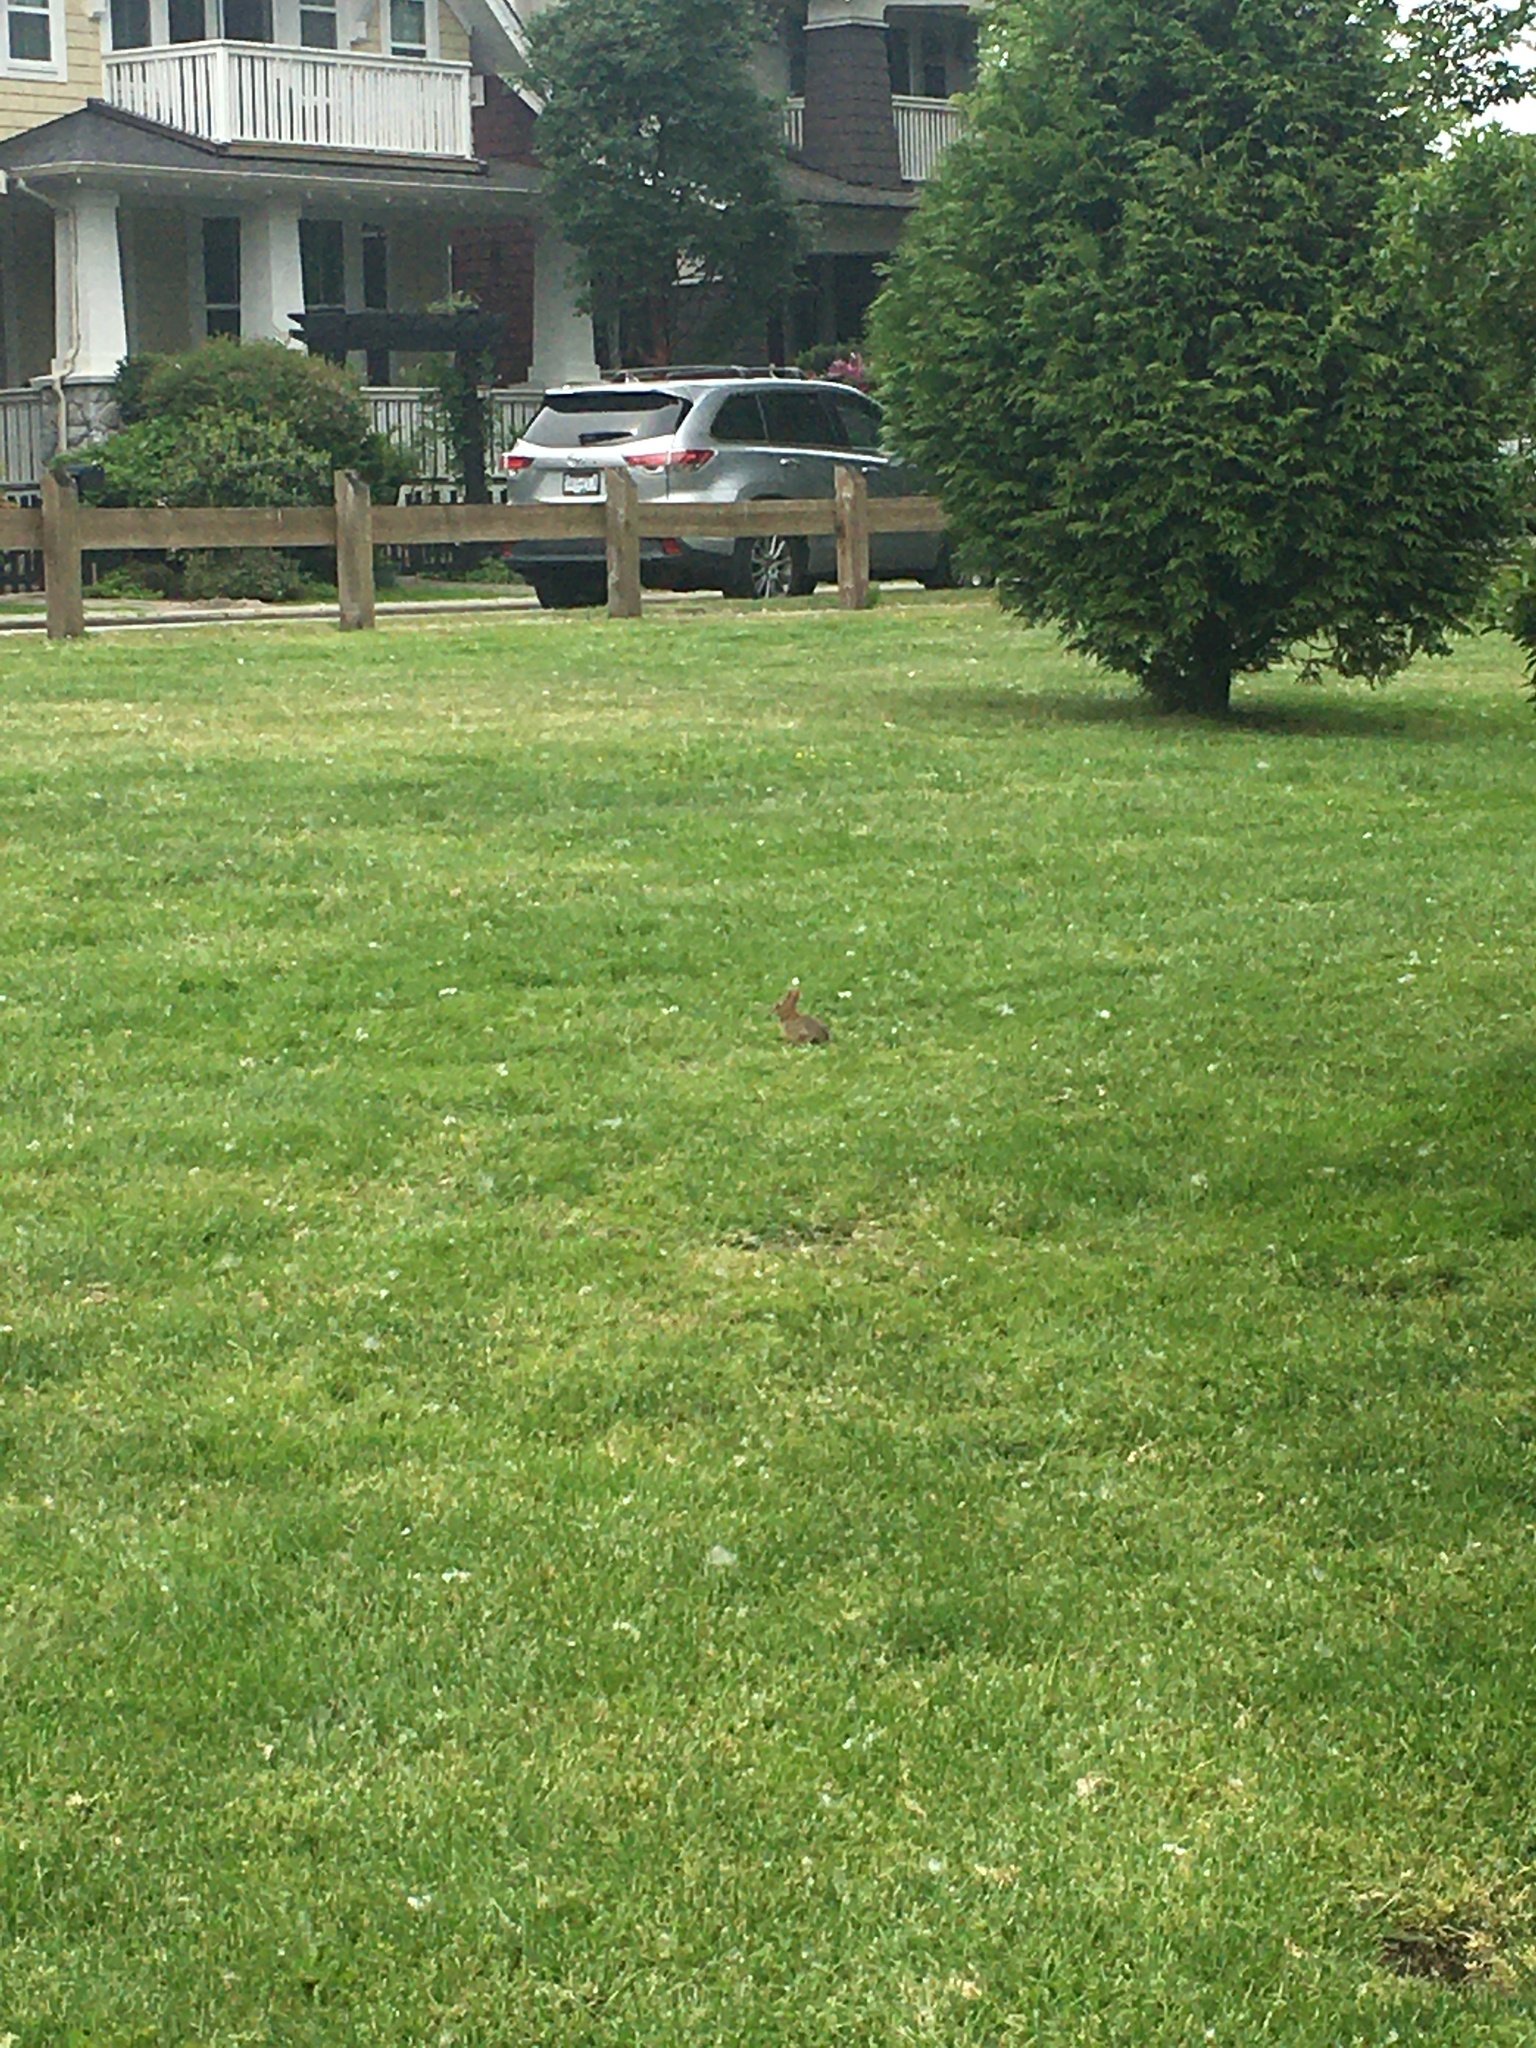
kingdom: Animalia
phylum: Chordata
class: Mammalia
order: Lagomorpha
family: Leporidae
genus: Sylvilagus
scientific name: Sylvilagus floridanus
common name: Eastern cottontail
